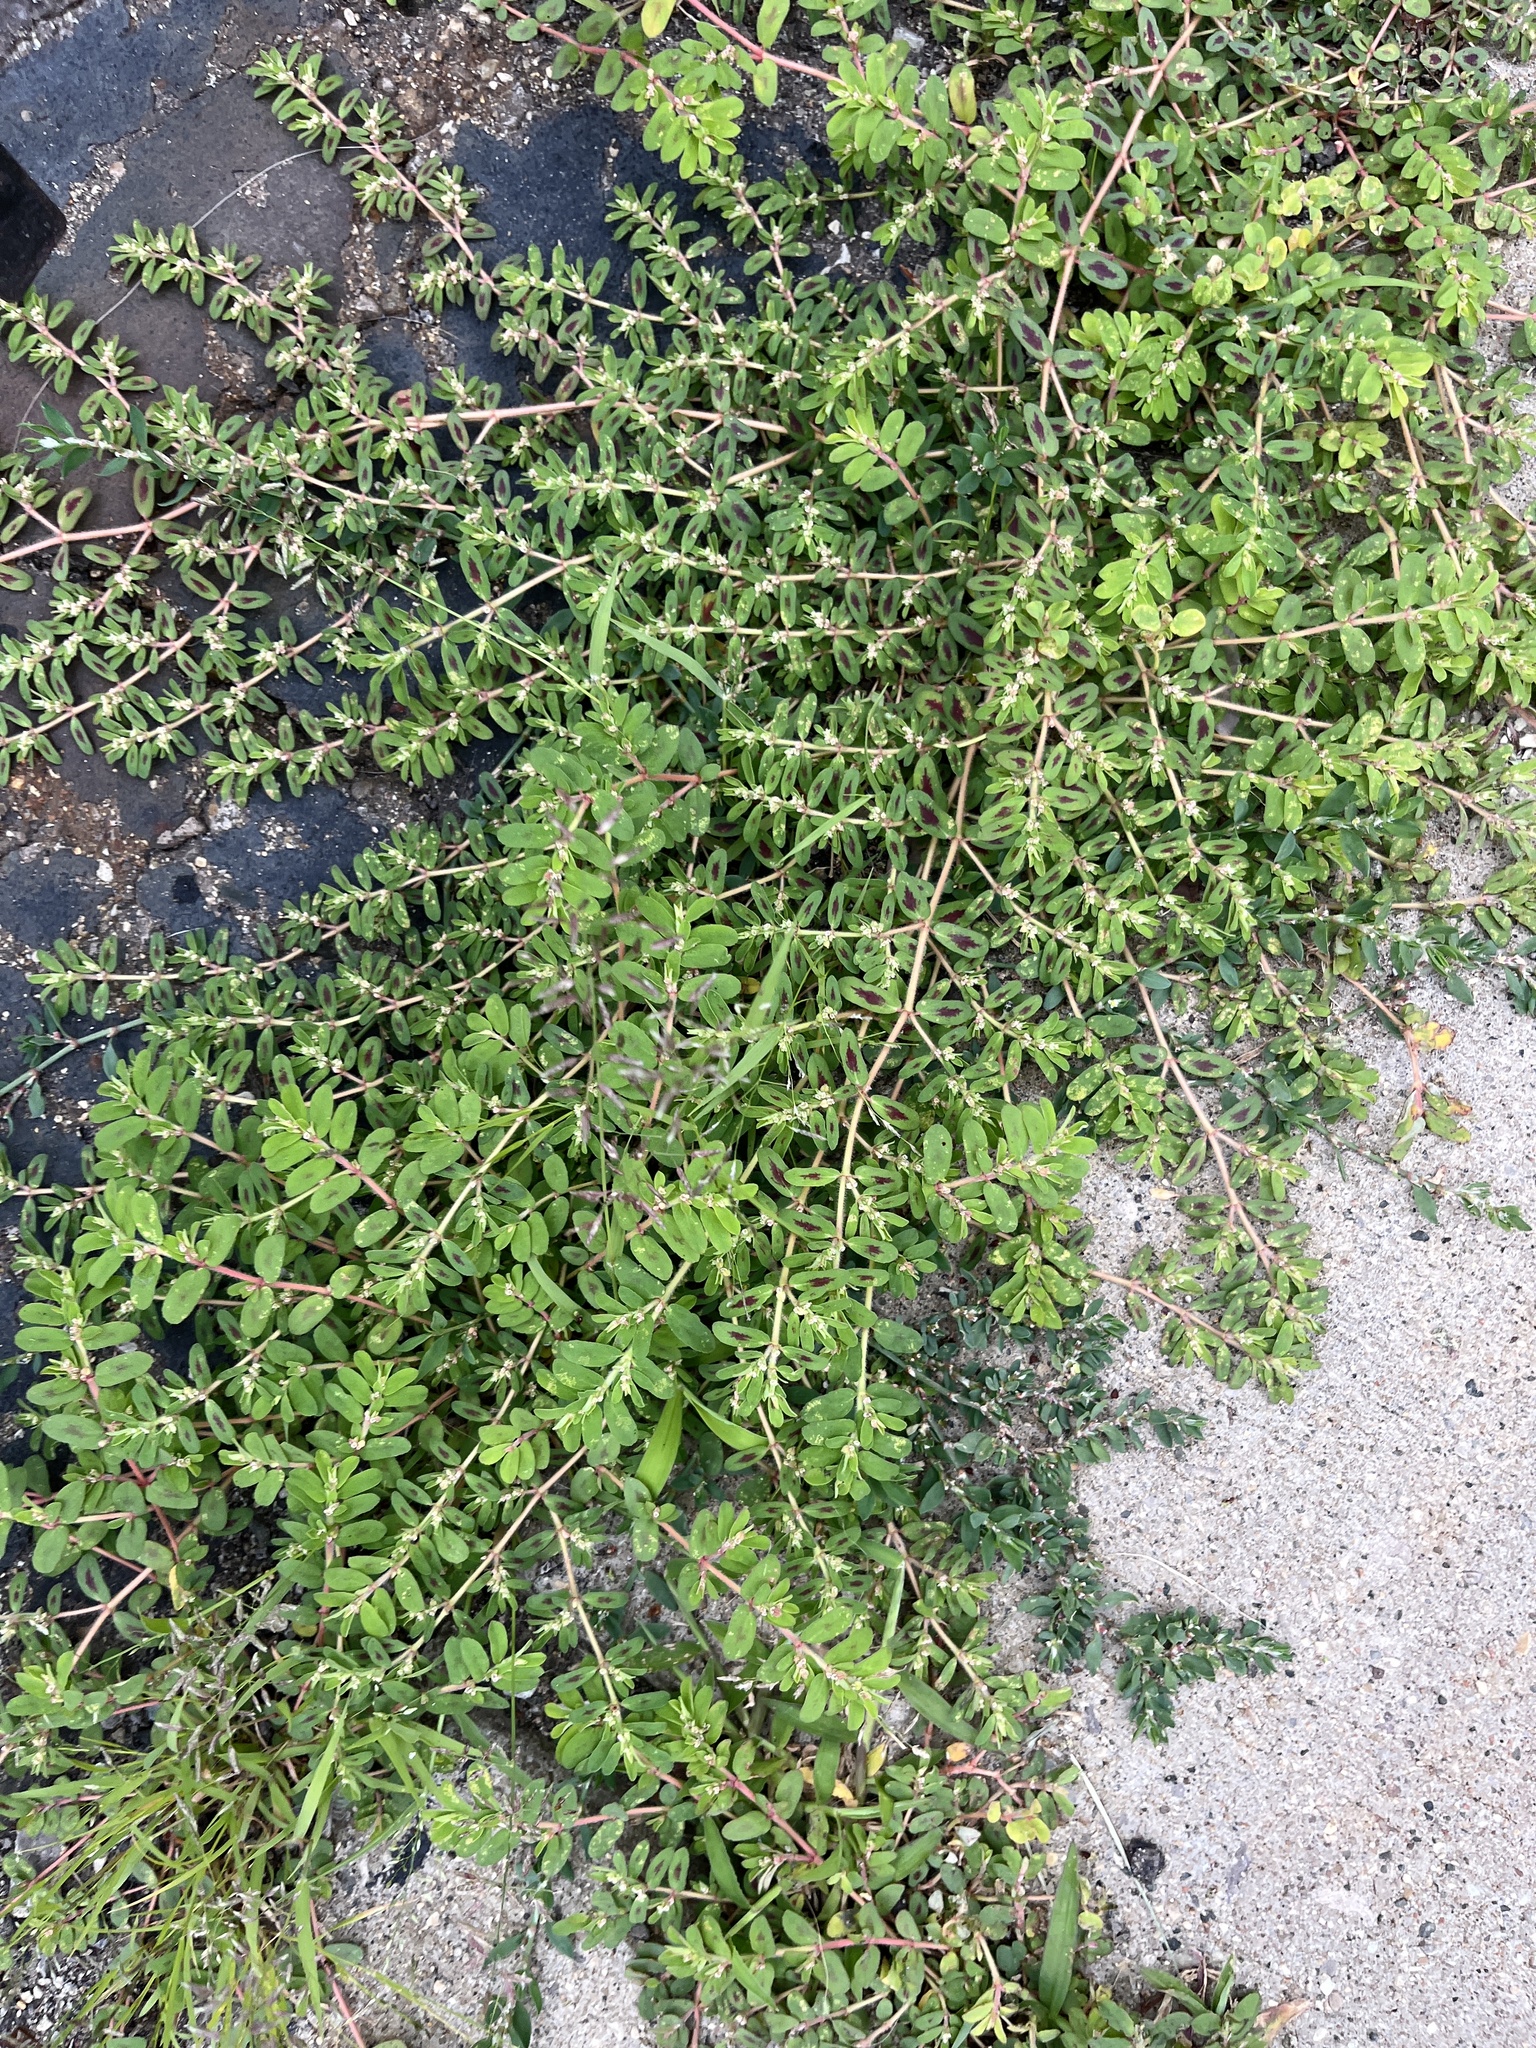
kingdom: Plantae
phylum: Tracheophyta
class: Magnoliopsida
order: Malpighiales
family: Euphorbiaceae
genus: Euphorbia
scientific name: Euphorbia maculata
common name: Spotted spurge
